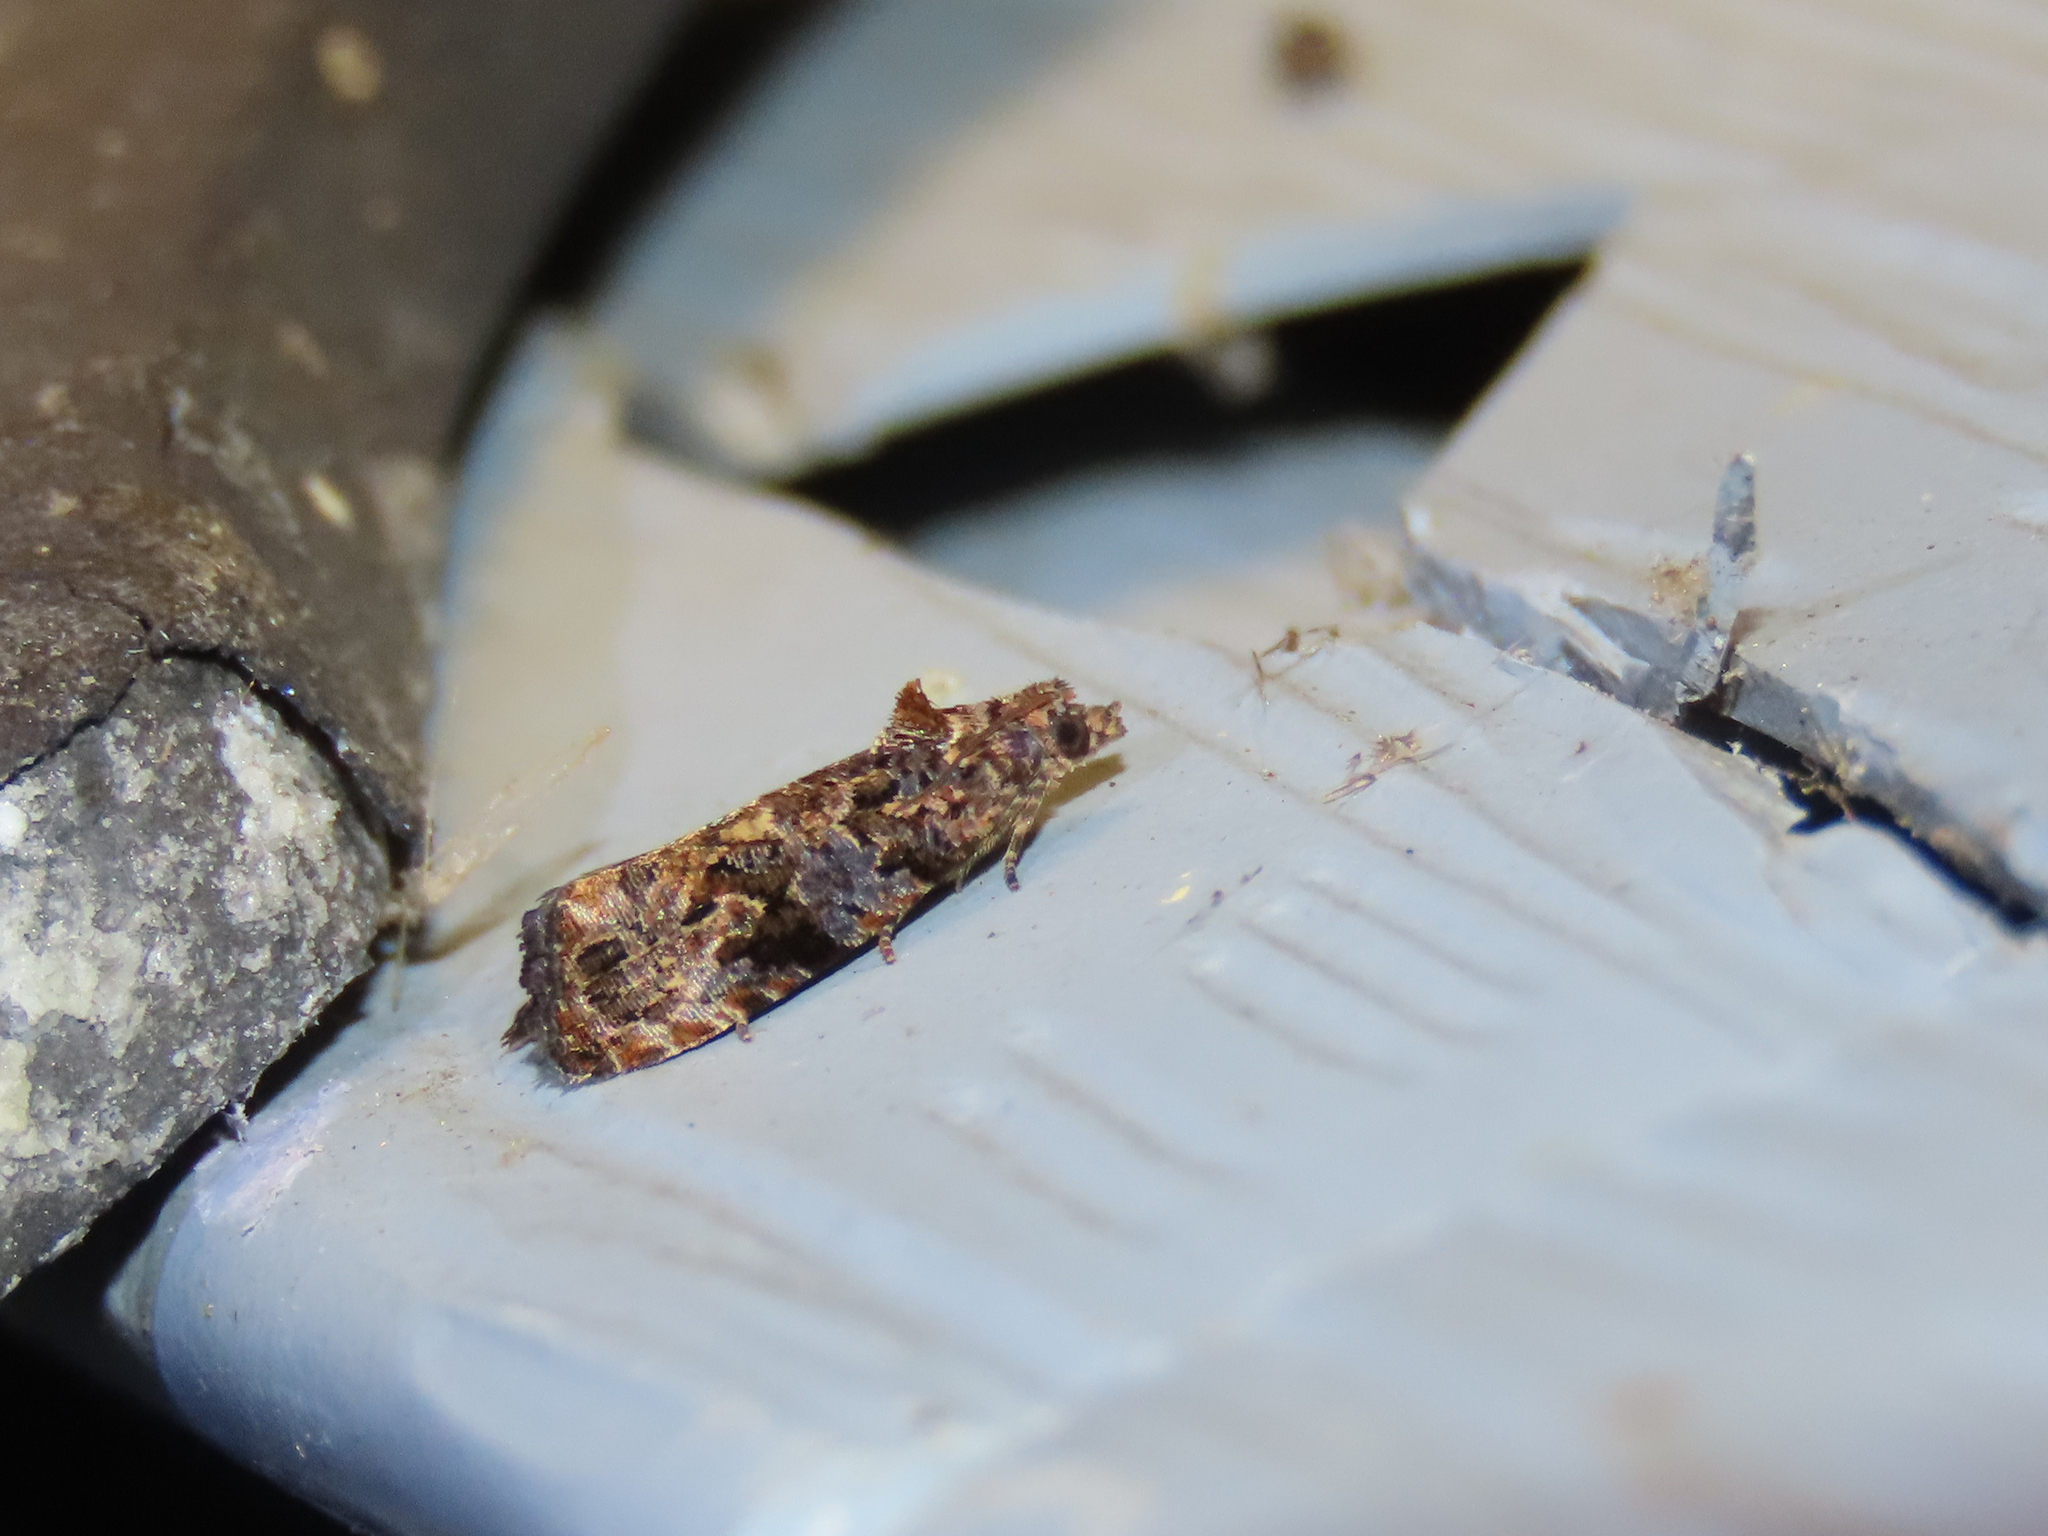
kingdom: Animalia
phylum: Arthropoda
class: Insecta
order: Lepidoptera
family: Tortricidae
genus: Endothenia
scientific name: Endothenia hebesana
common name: Verbena bud moth
